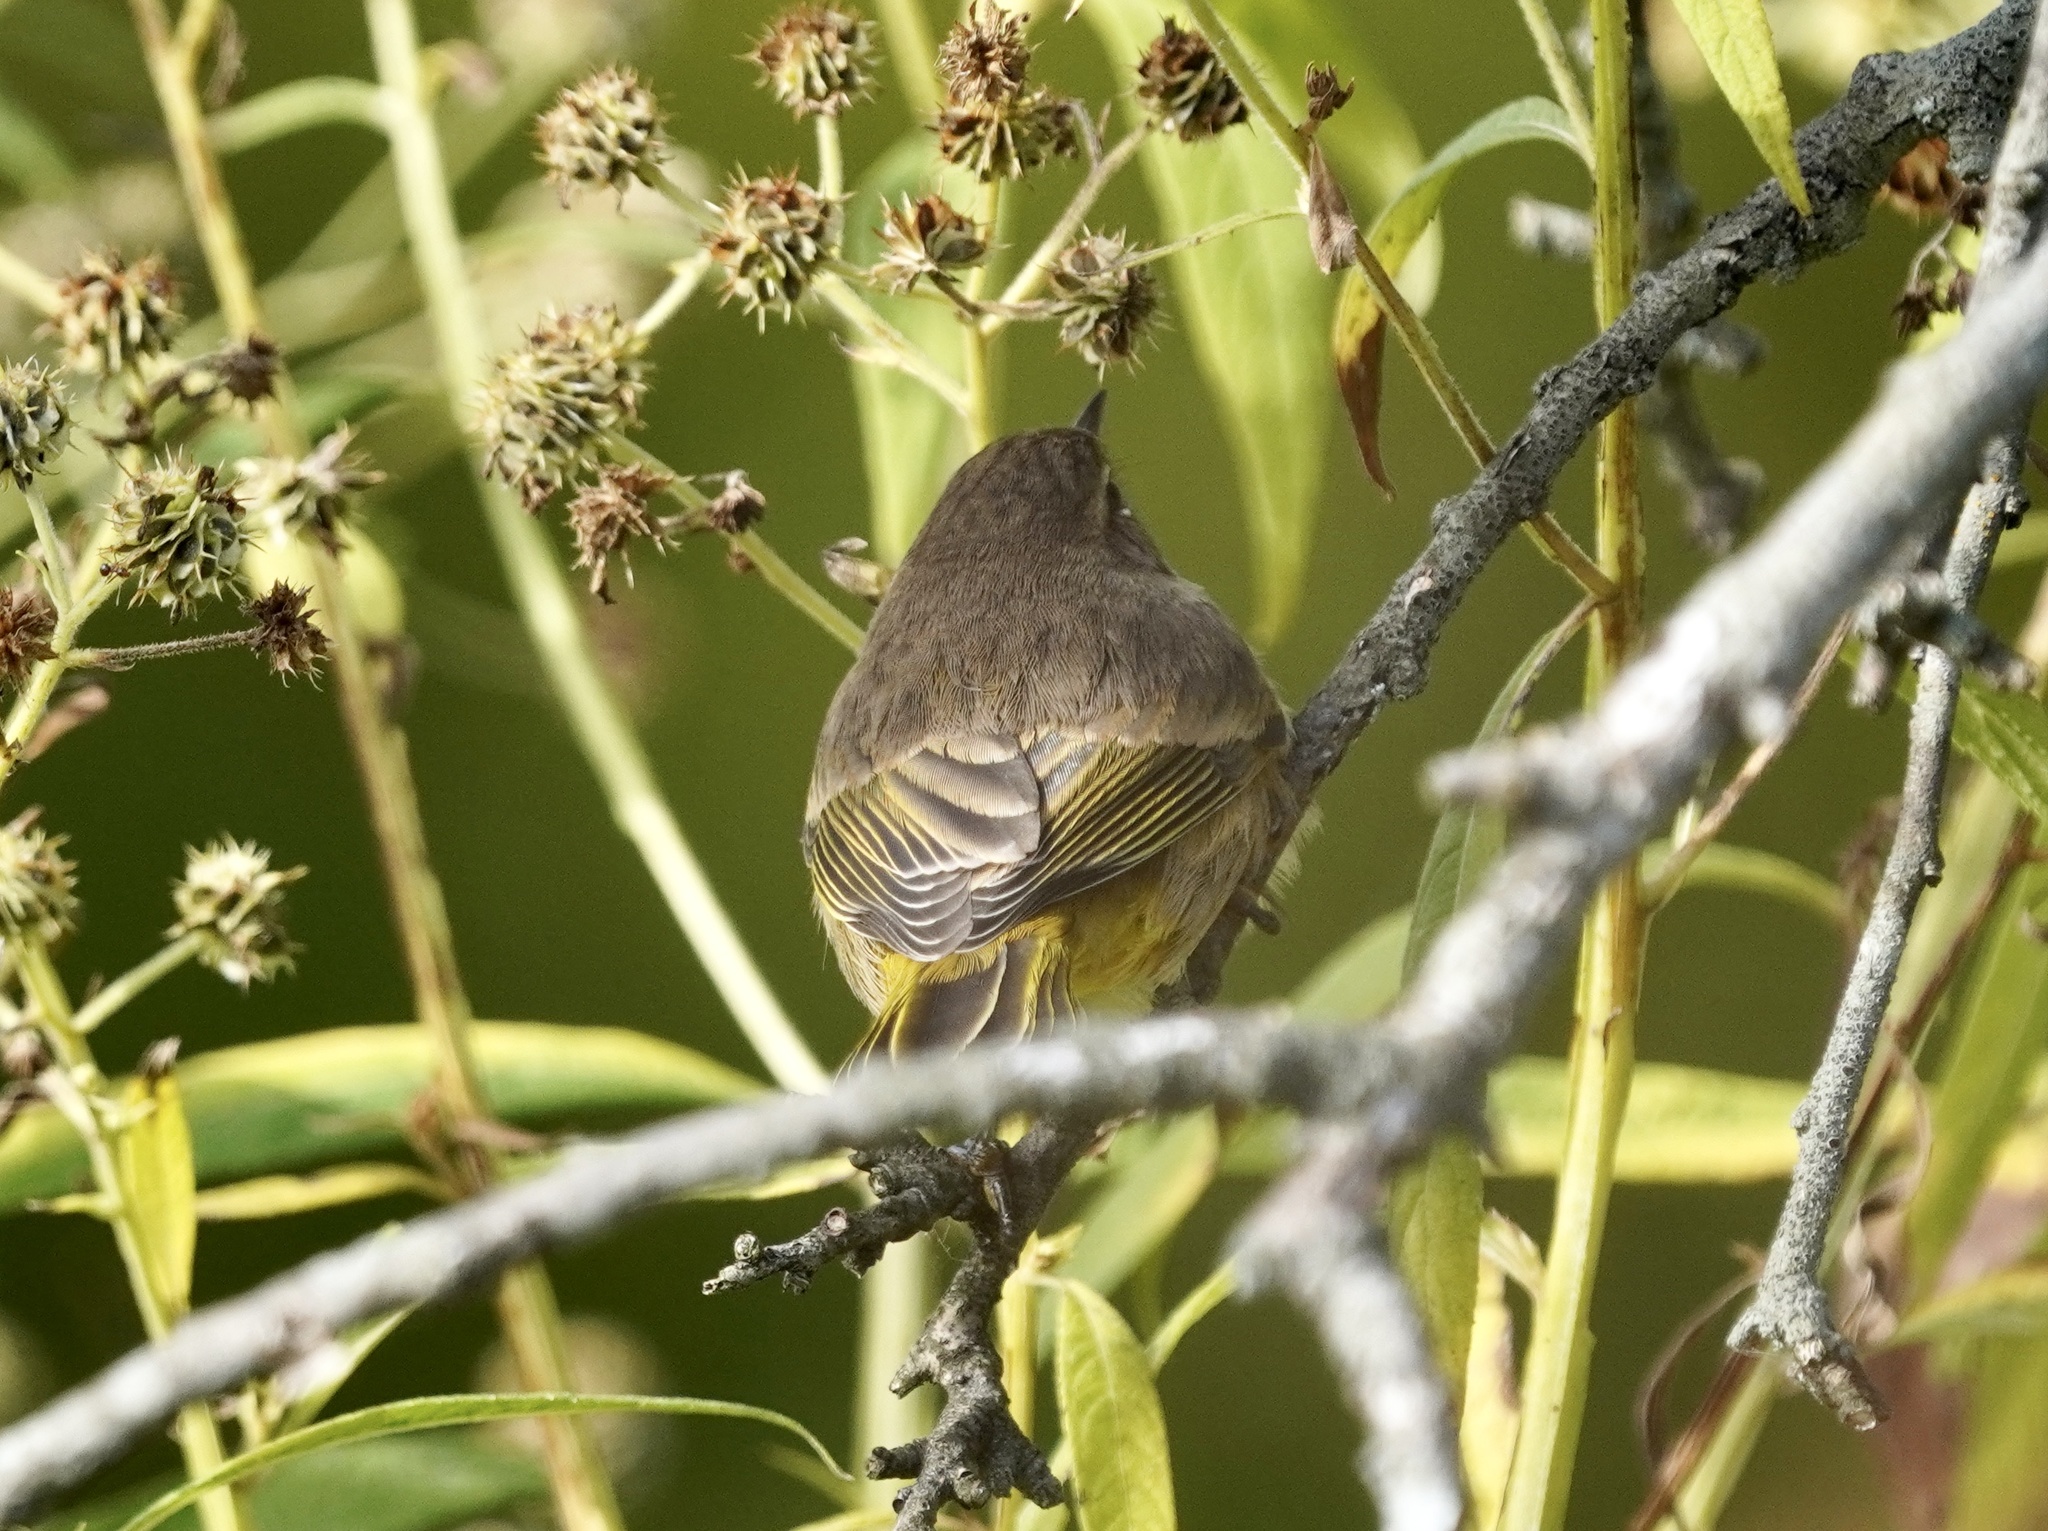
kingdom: Animalia
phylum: Chordata
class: Aves
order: Passeriformes
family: Parulidae
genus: Setophaga
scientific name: Setophaga palmarum
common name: Palm warbler
